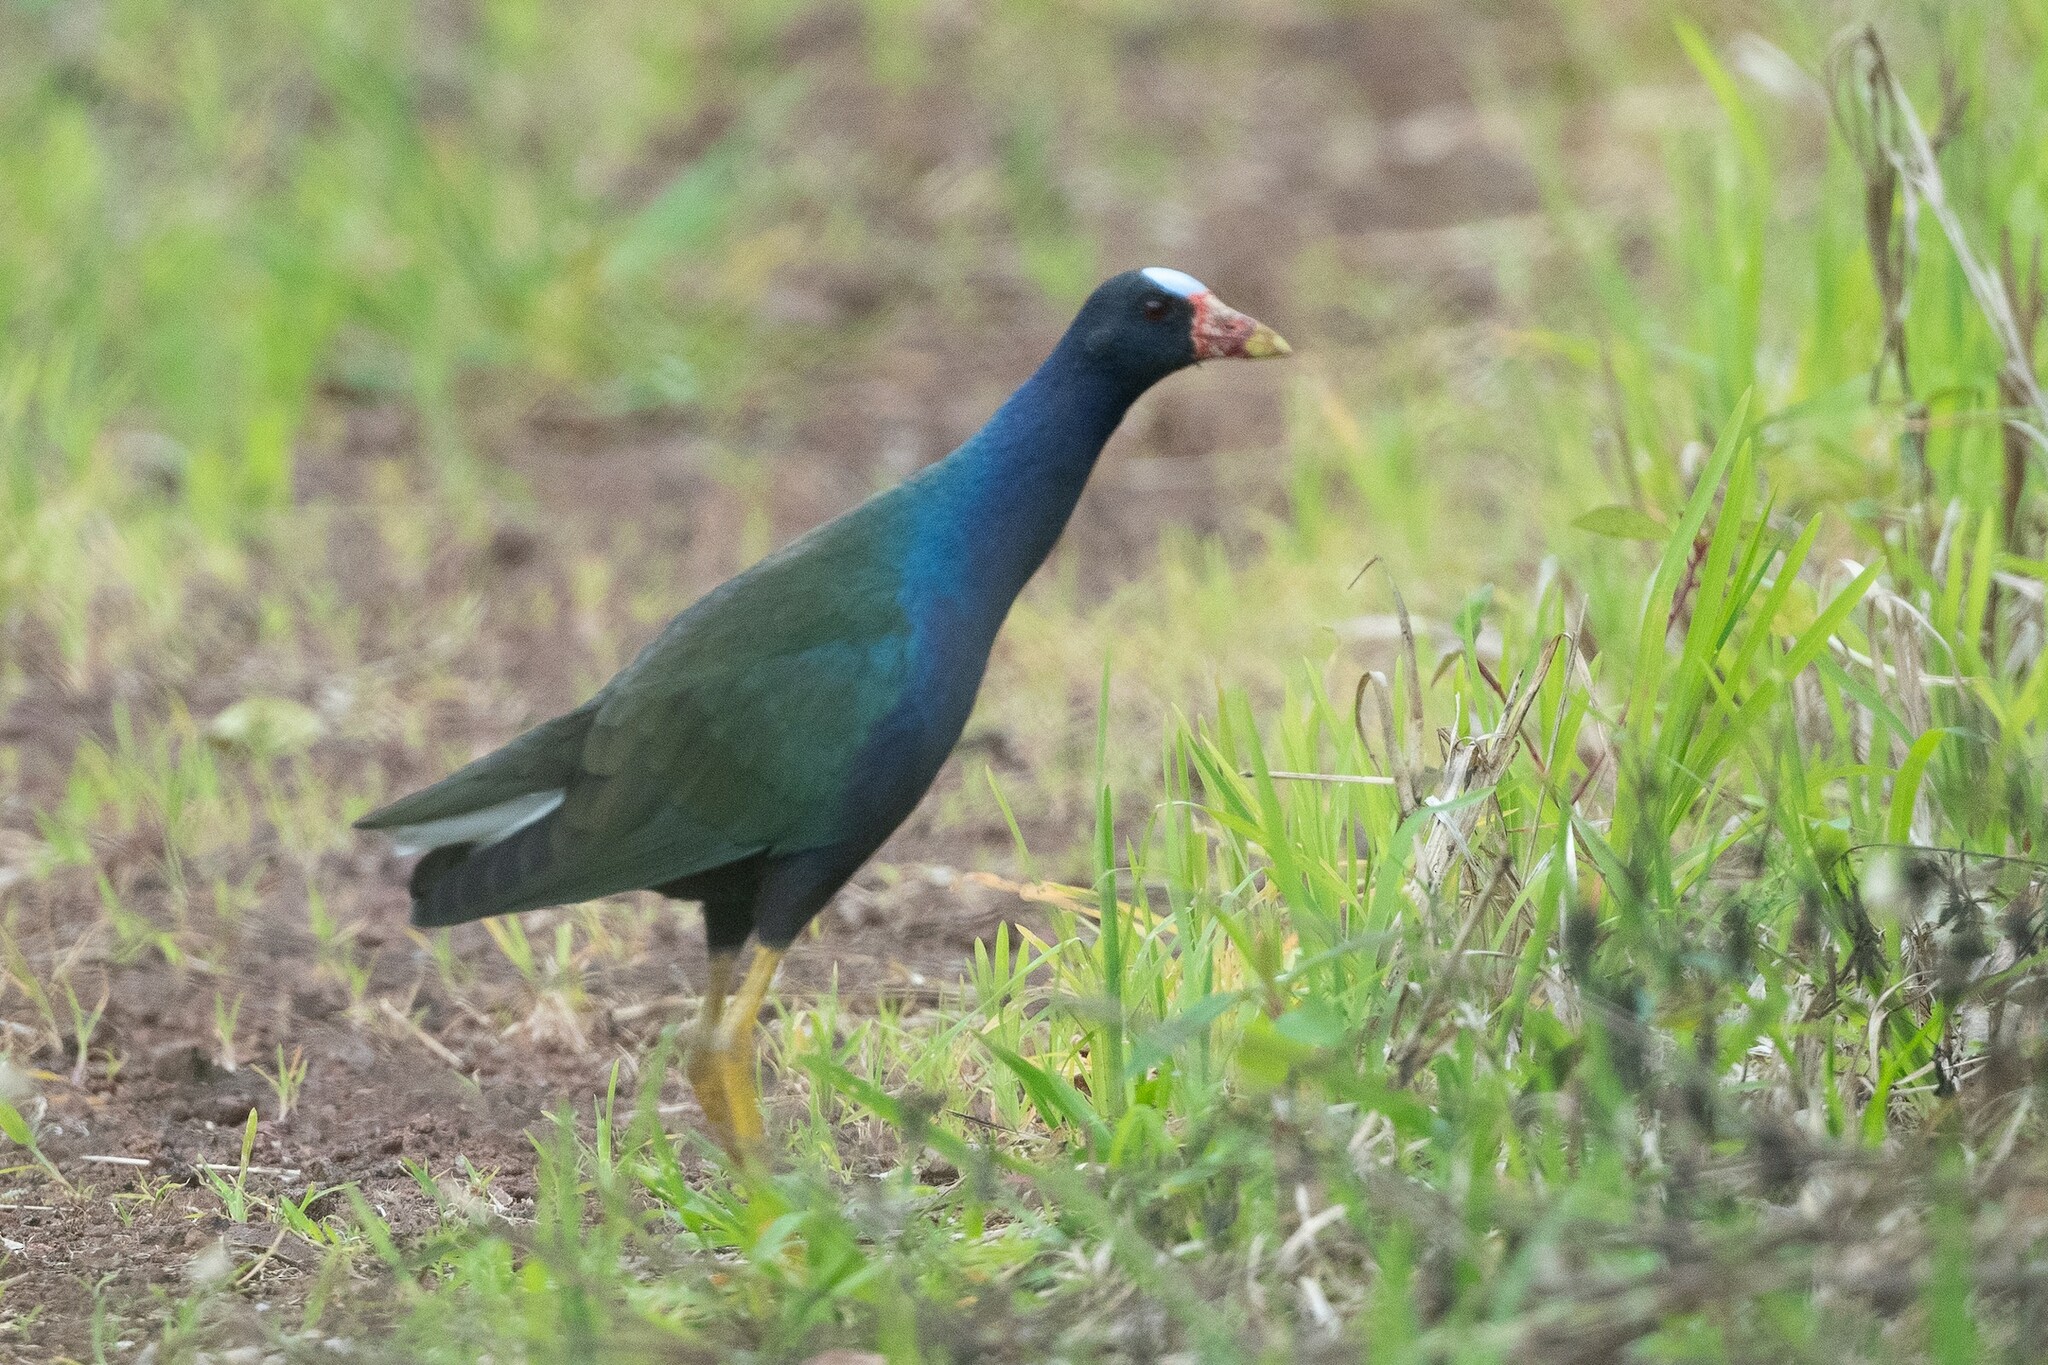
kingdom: Animalia
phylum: Chordata
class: Aves
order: Gruiformes
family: Rallidae
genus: Porphyrio
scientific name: Porphyrio martinica
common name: Purple gallinule
